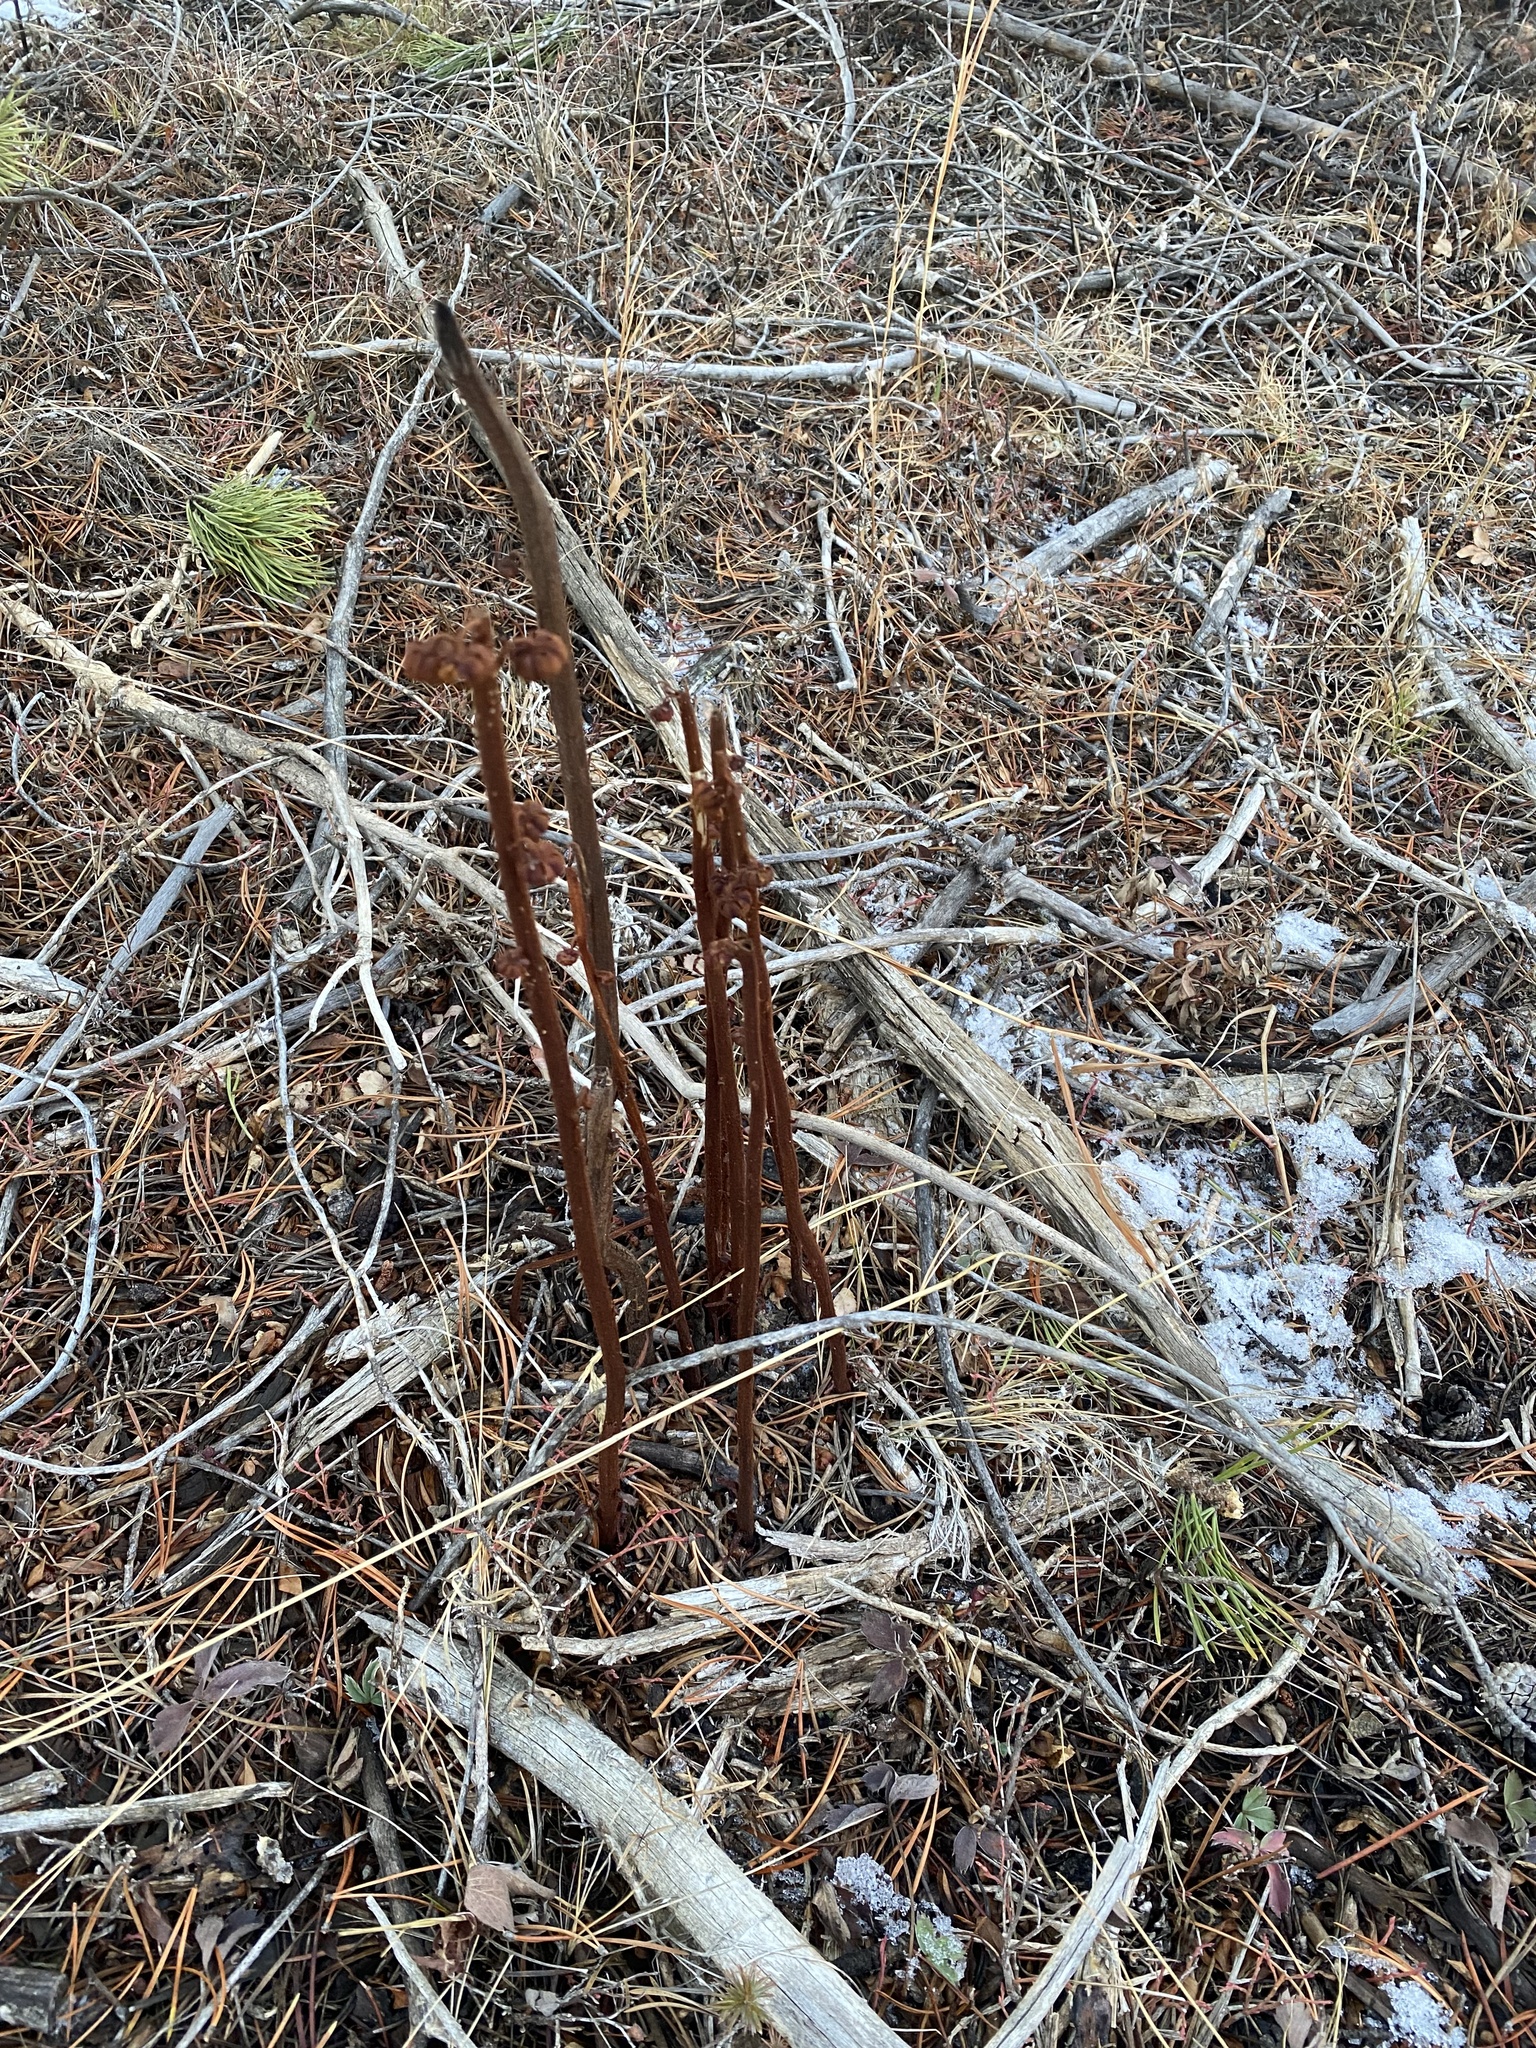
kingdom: Plantae
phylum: Tracheophyta
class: Magnoliopsida
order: Ericales
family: Ericaceae
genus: Pterospora
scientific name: Pterospora andromedea
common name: Giant bird's-nest
